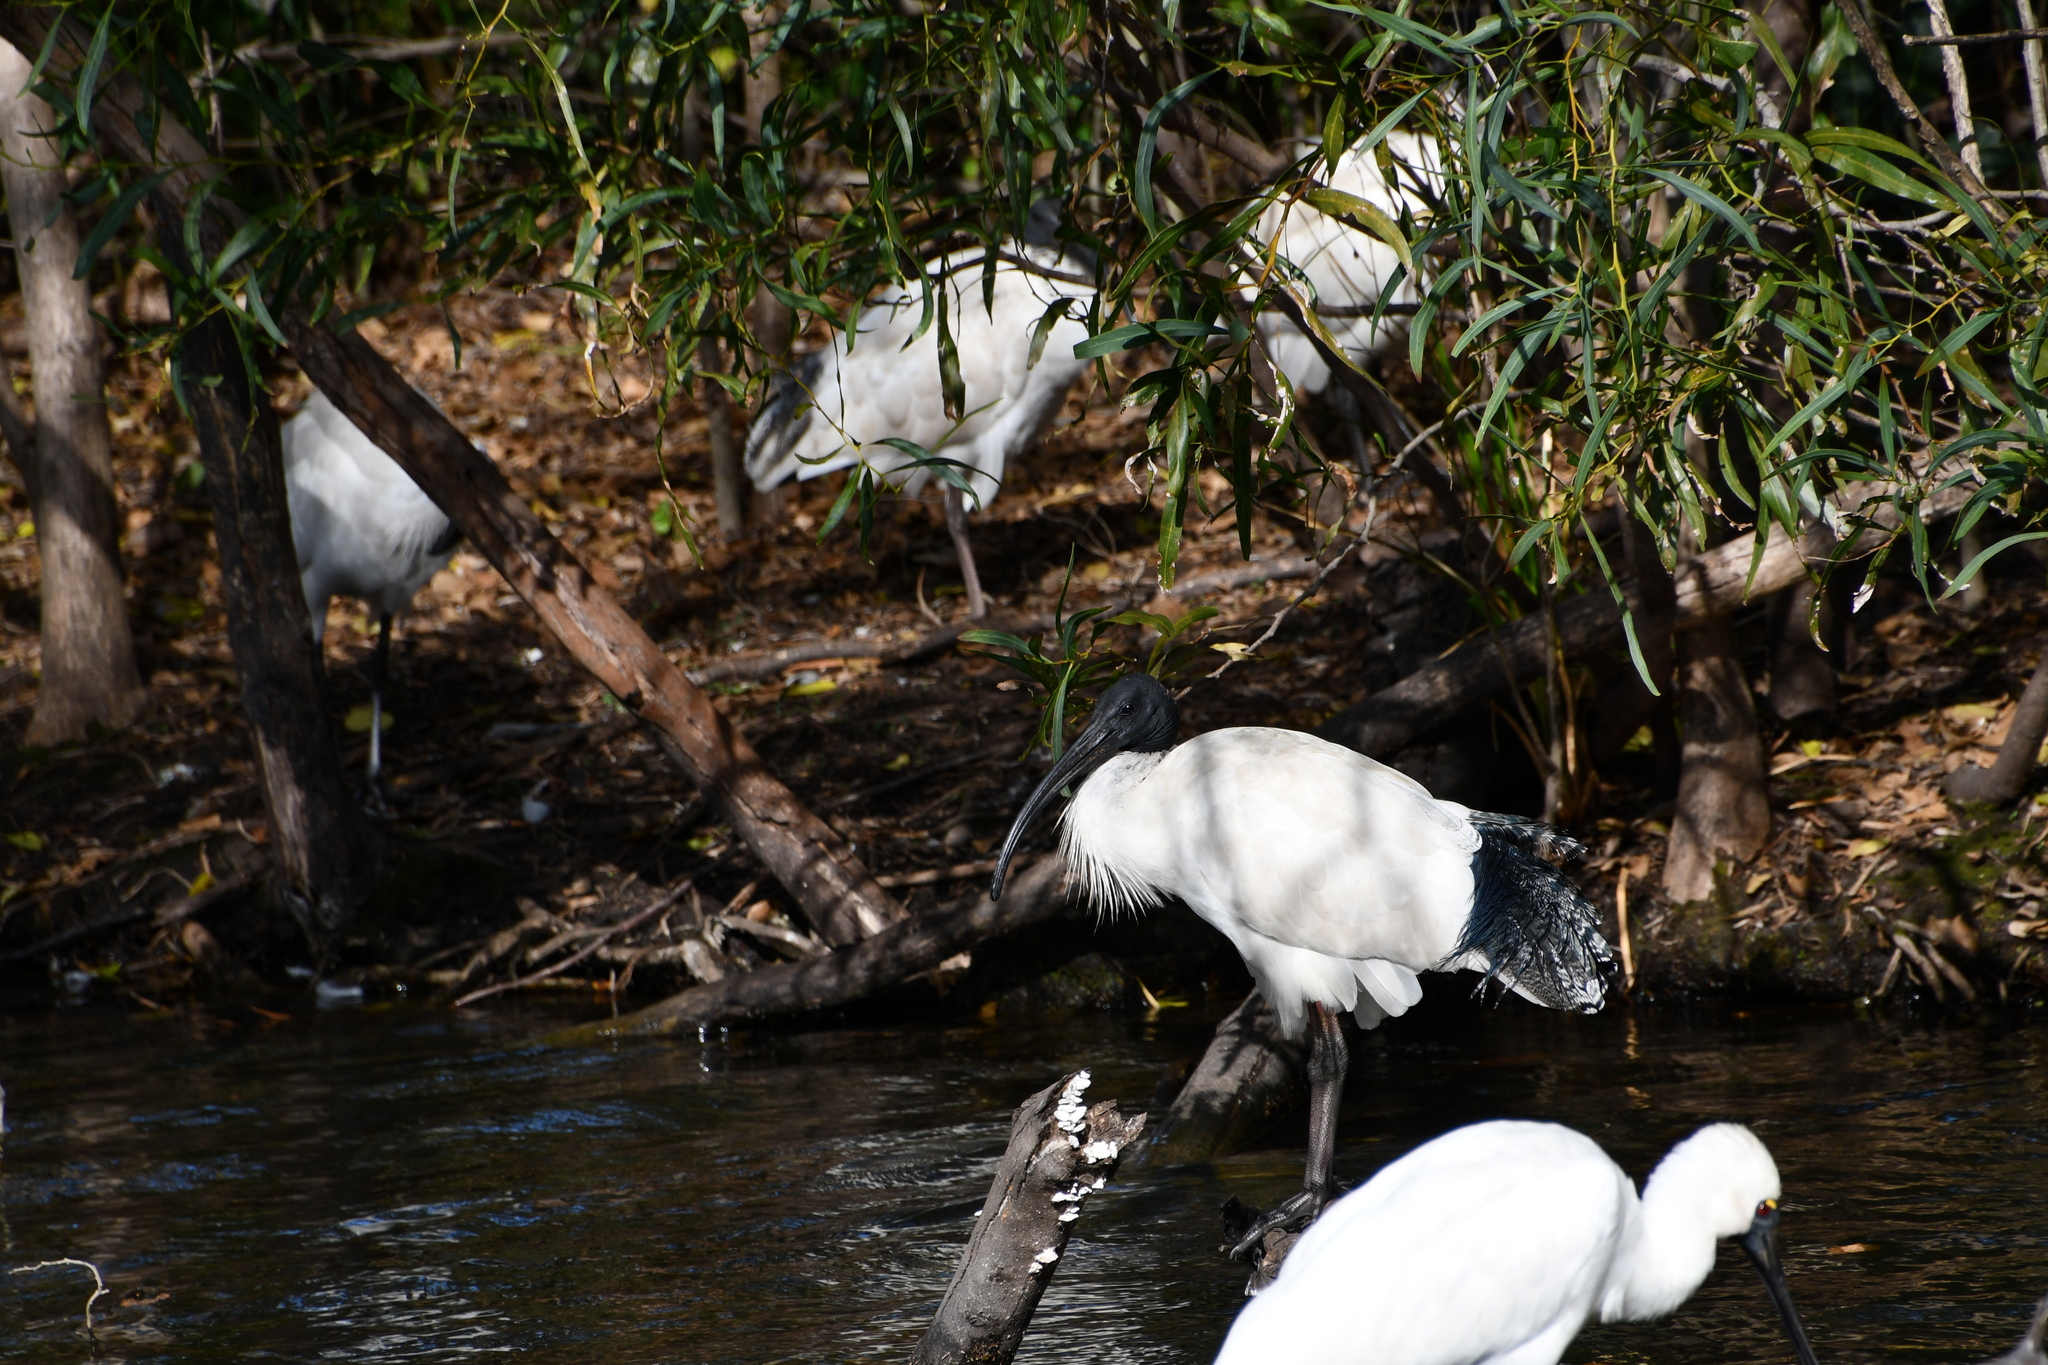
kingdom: Animalia
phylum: Chordata
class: Aves
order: Pelecaniformes
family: Threskiornithidae
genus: Threskiornis
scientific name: Threskiornis molucca
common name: Australian white ibis
